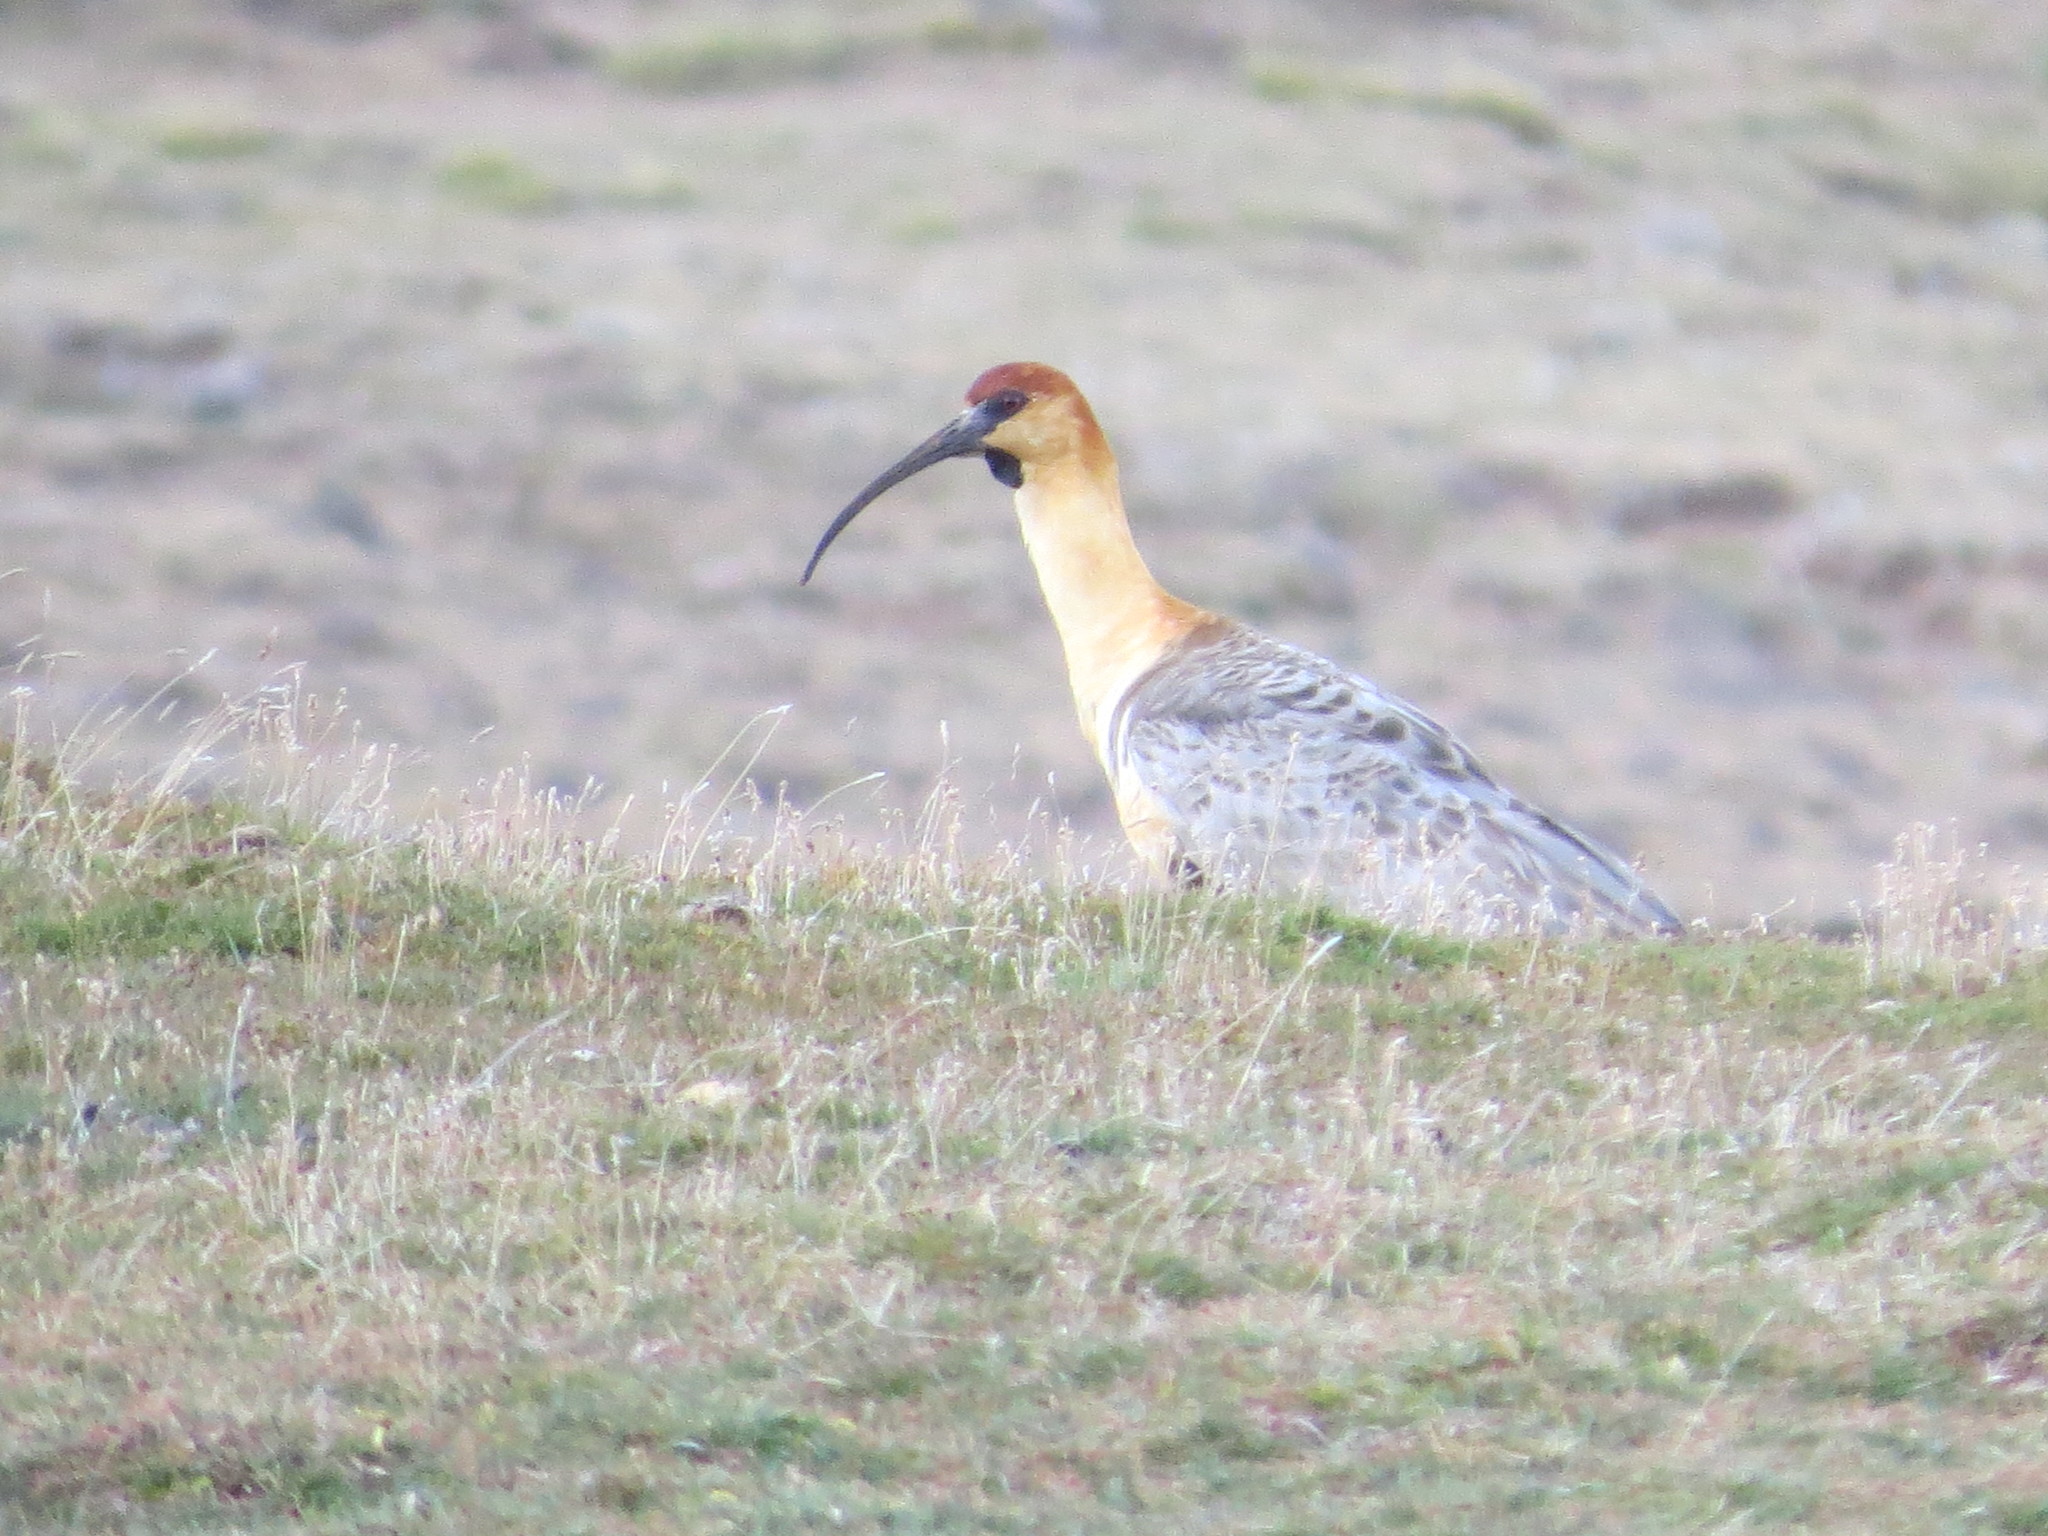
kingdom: Animalia
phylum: Chordata
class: Aves
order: Pelecaniformes
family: Threskiornithidae
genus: Theristicus
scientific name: Theristicus melanopis
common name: Black-faced ibis
